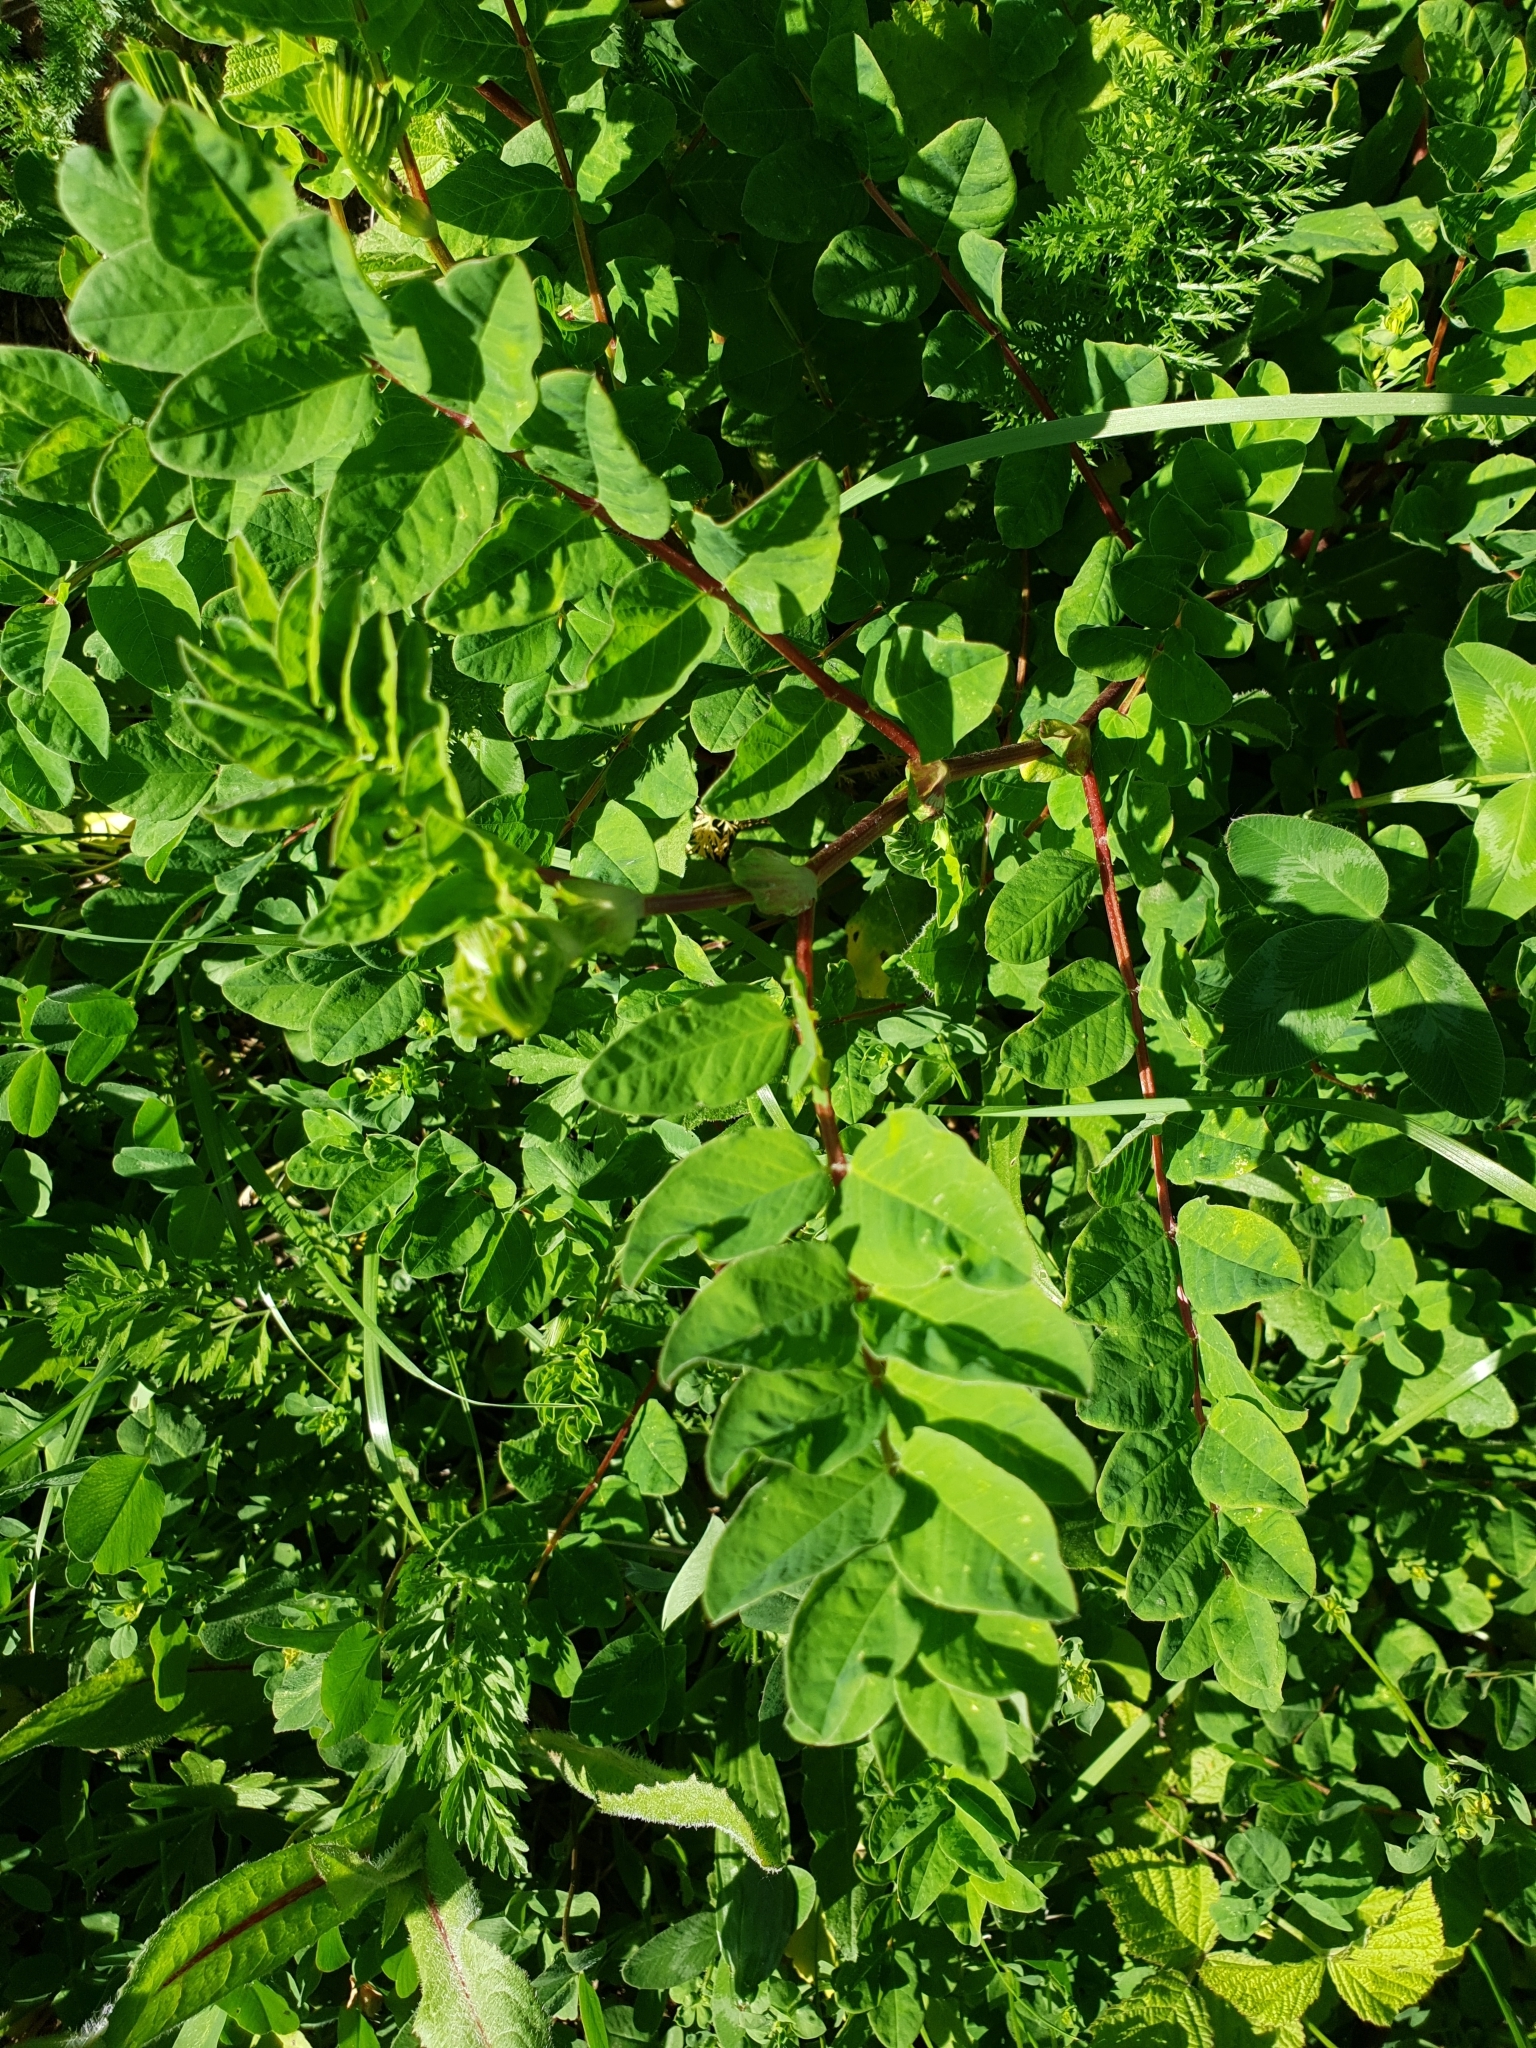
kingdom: Plantae
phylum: Tracheophyta
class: Magnoliopsida
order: Fabales
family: Fabaceae
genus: Astragalus
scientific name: Astragalus glycyphyllos
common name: Wild liquorice
